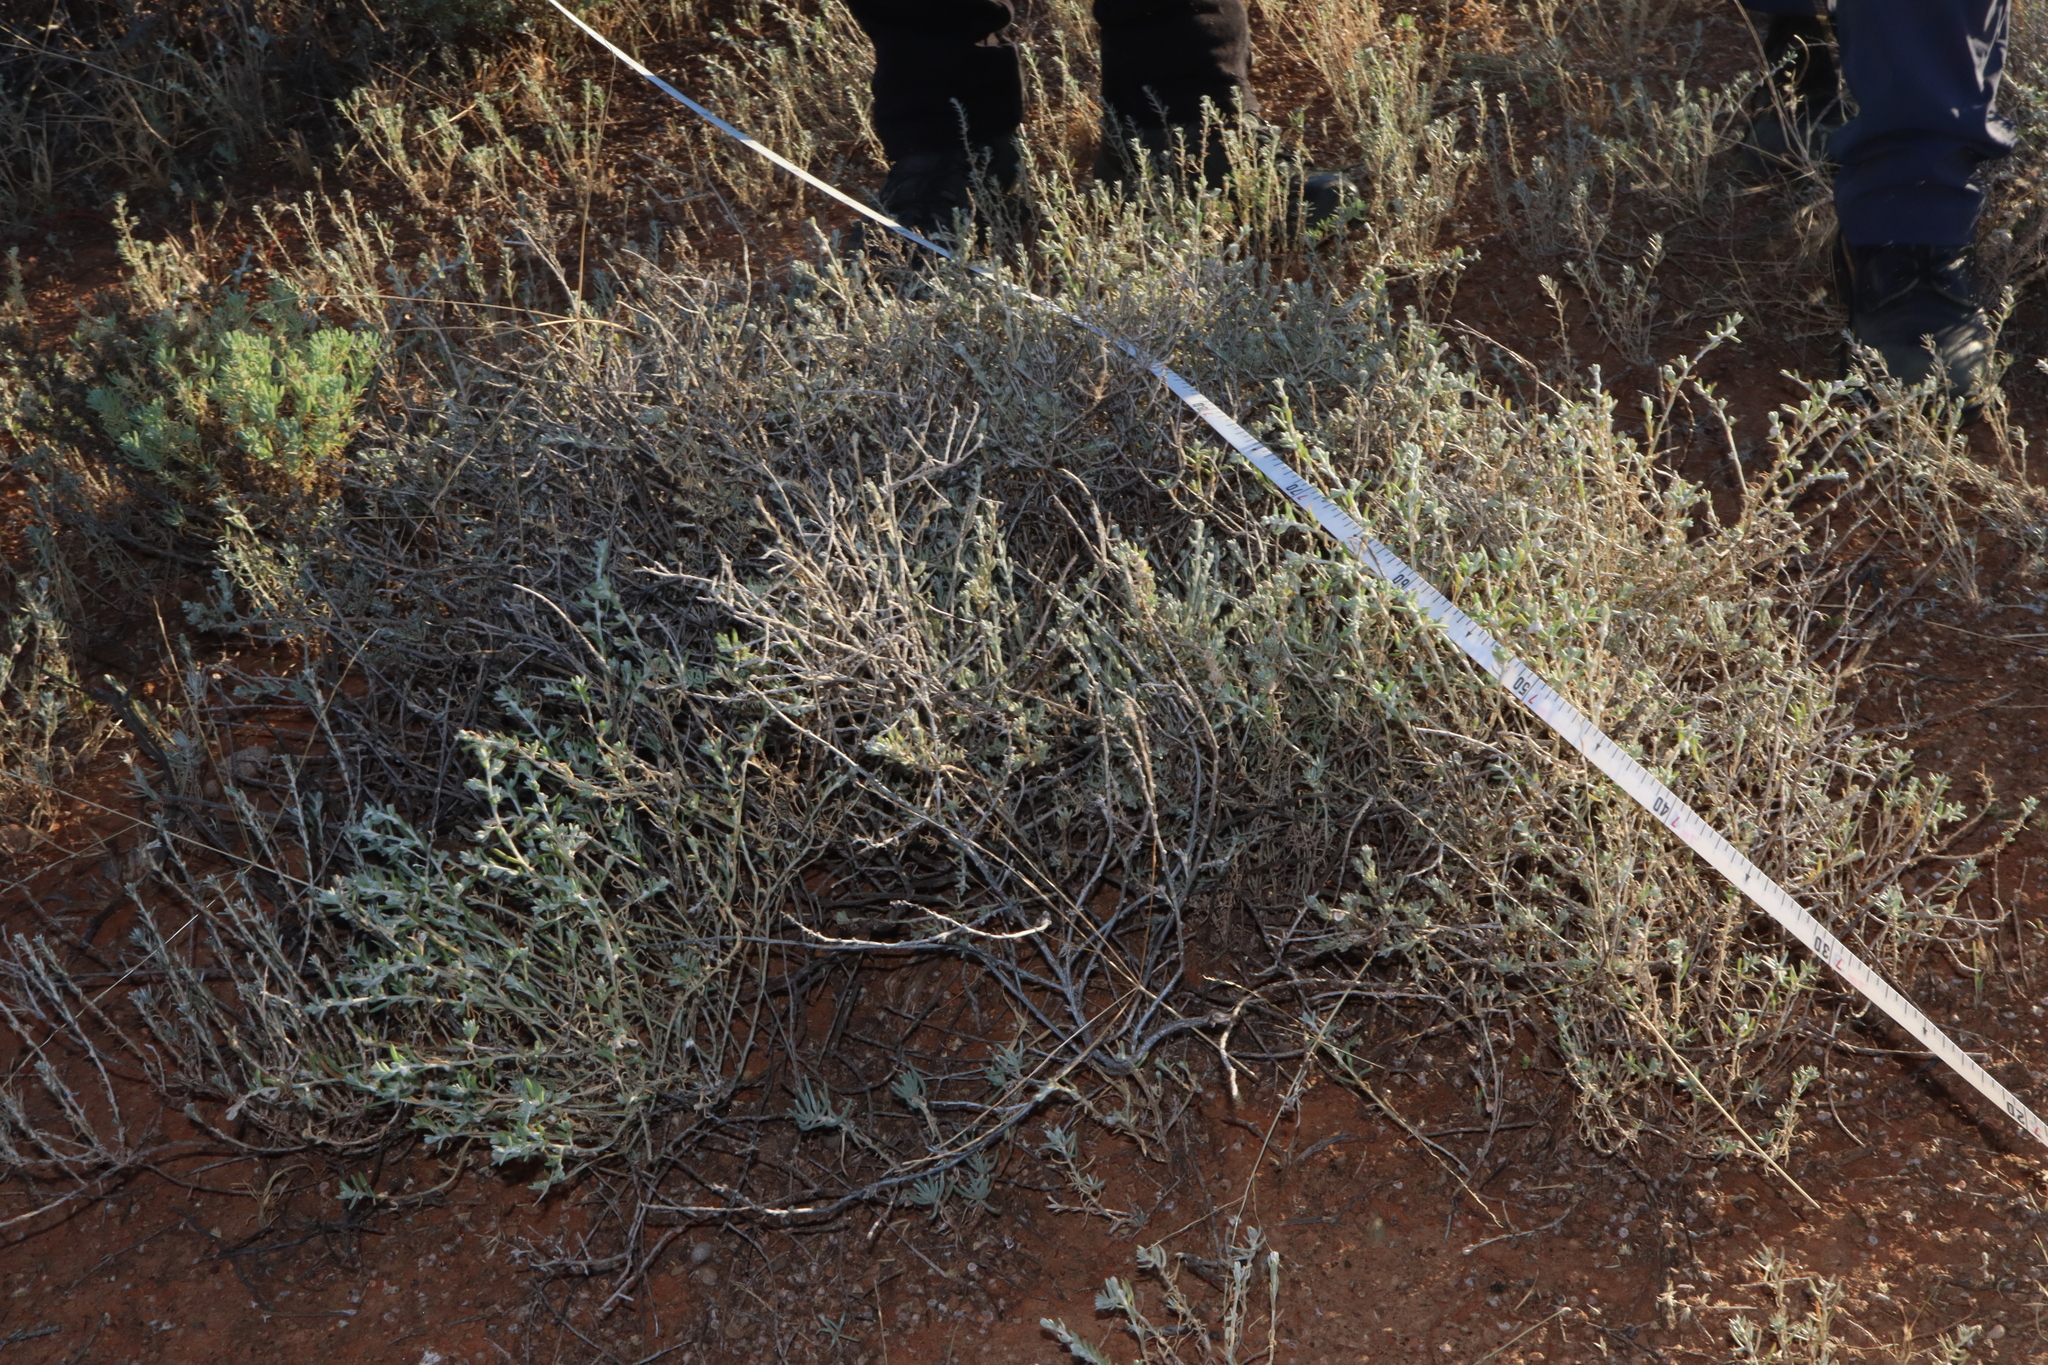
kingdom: Plantae
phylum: Tracheophyta
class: Magnoliopsida
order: Caryophyllales
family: Amaranthaceae
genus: Dissocarpus
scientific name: Dissocarpus biflorus
